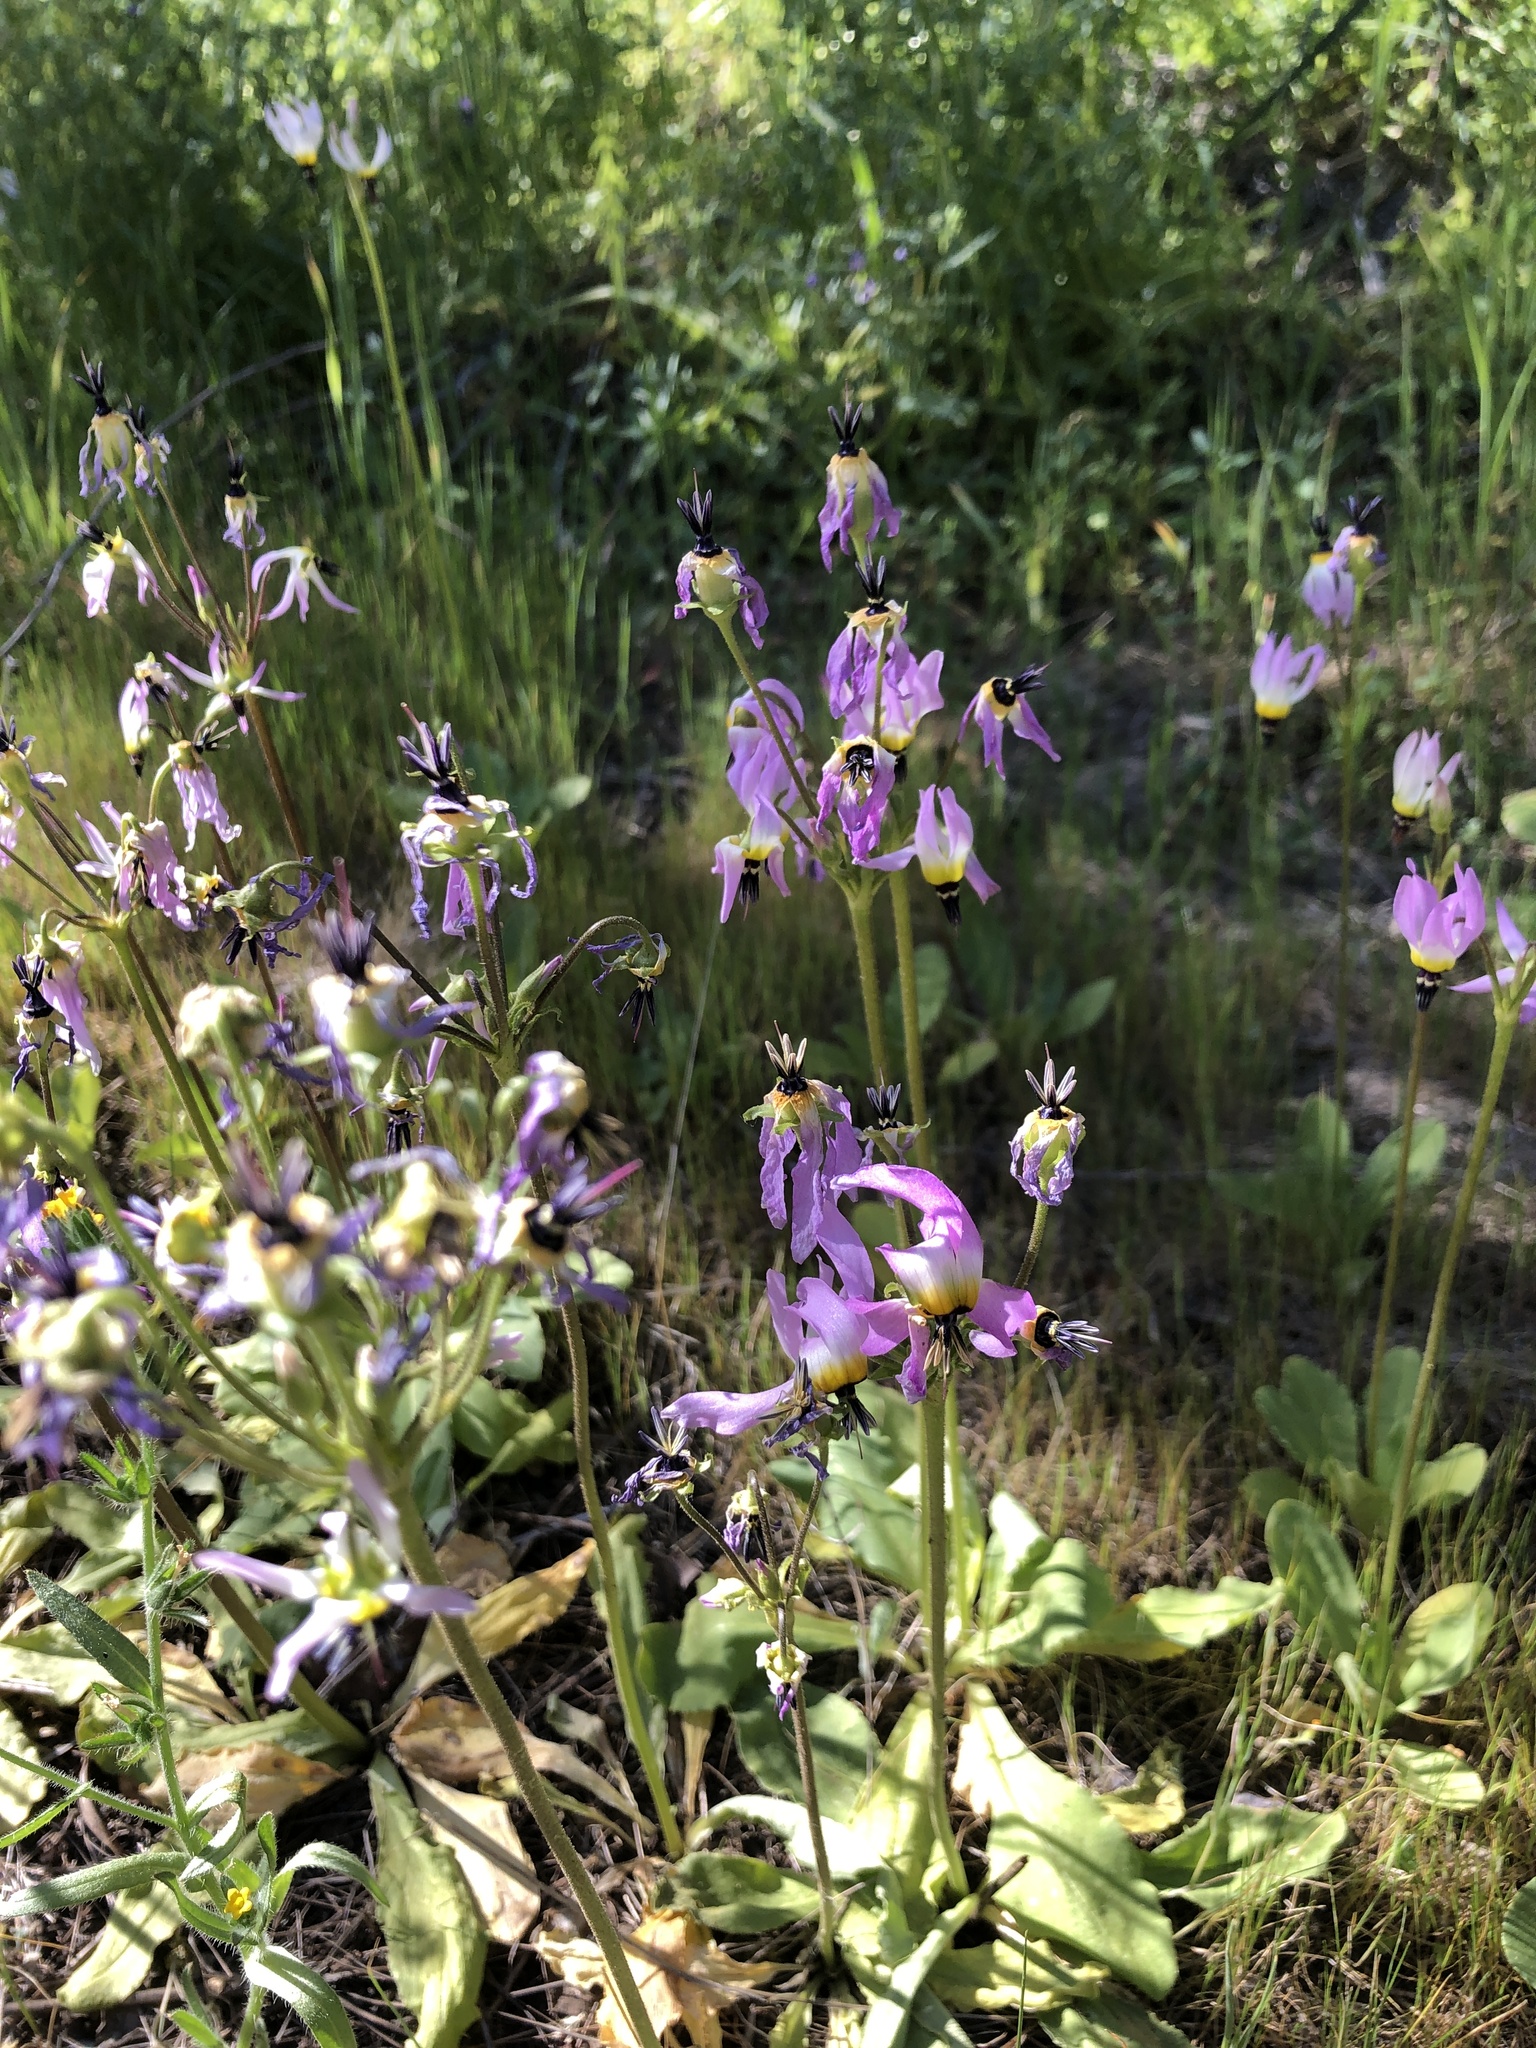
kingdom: Plantae
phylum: Tracheophyta
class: Magnoliopsida
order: Ericales
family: Primulaceae
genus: Dodecatheon
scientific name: Dodecatheon clevelandii
